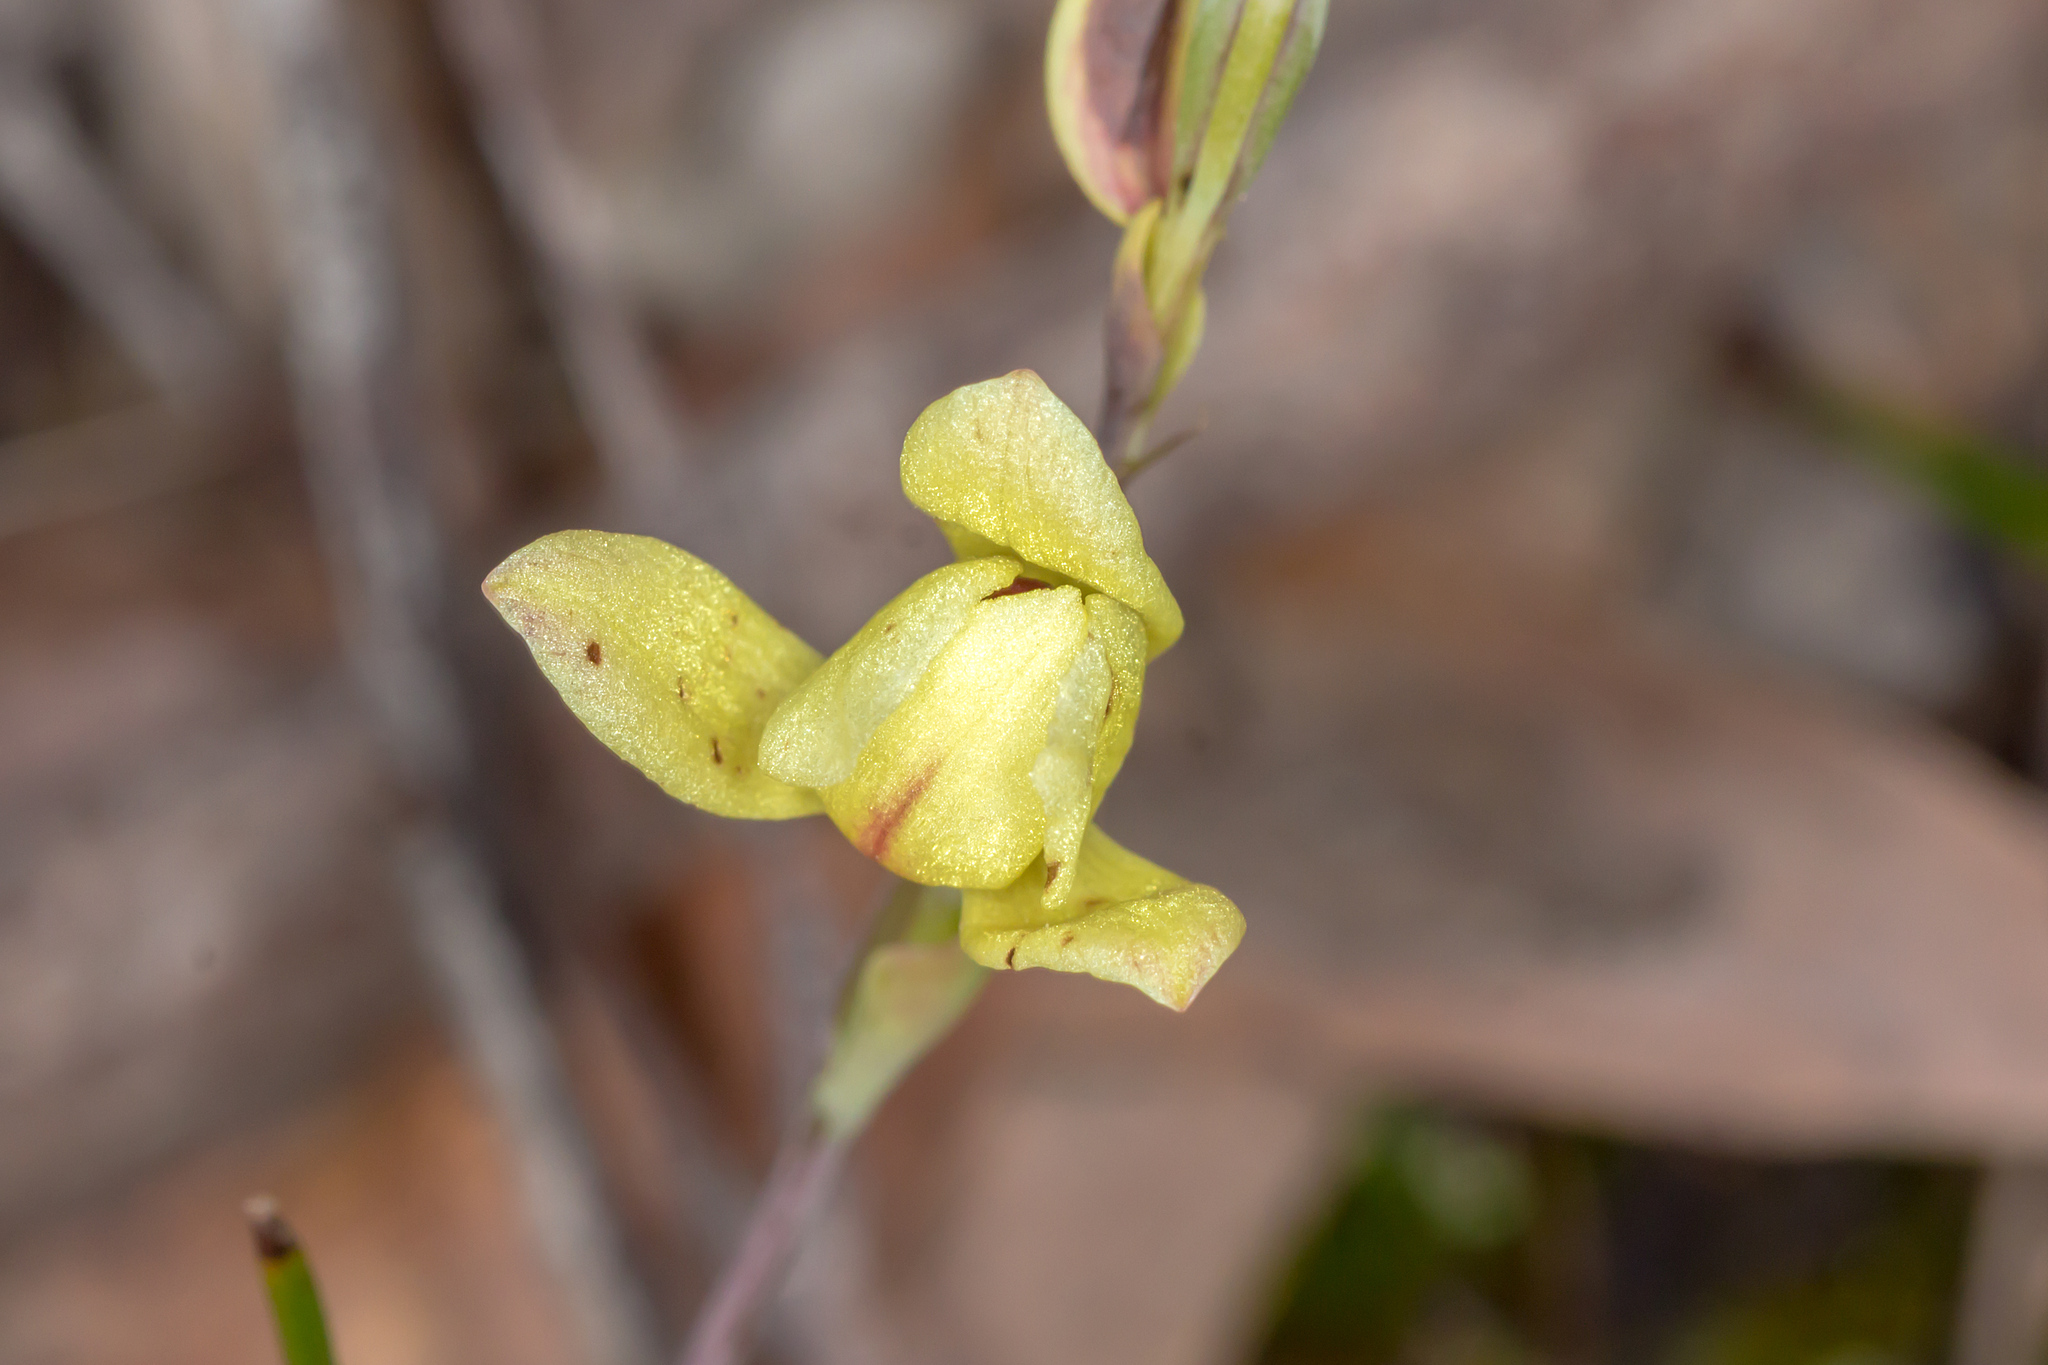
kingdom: Plantae
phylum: Tracheophyta
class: Liliopsida
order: Asparagales
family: Orchidaceae
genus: Thelymitra
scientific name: Thelymitra antennifera
